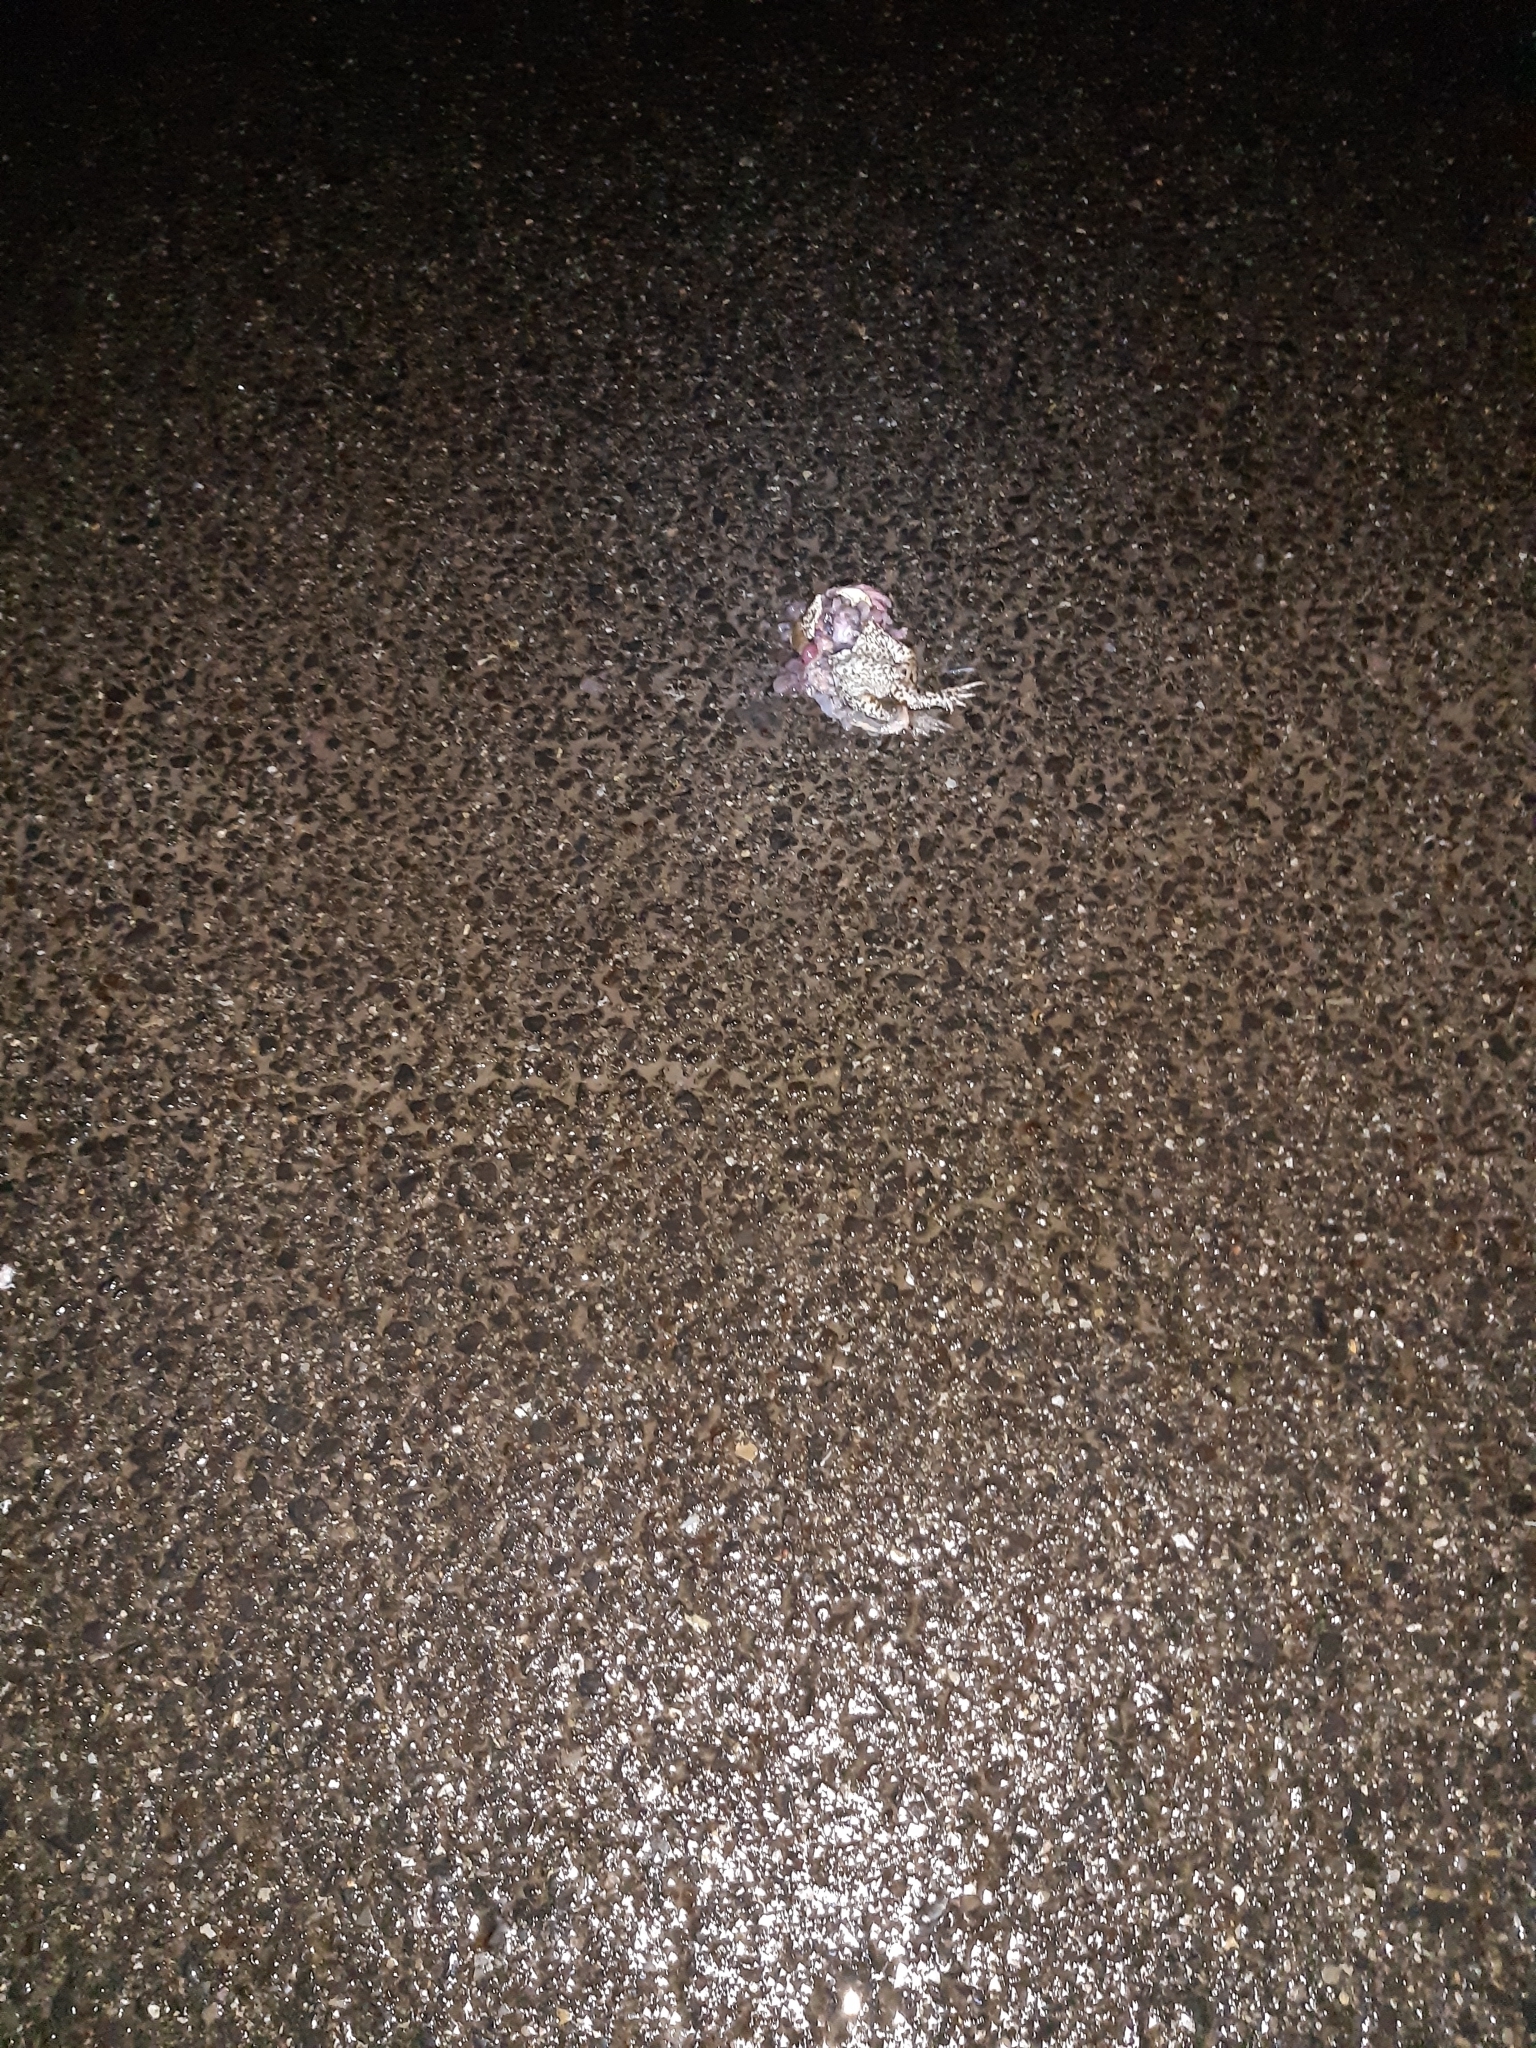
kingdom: Animalia
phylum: Chordata
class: Amphibia
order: Anura
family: Bufonidae
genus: Bufo
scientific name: Bufo bufo
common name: Common toad
